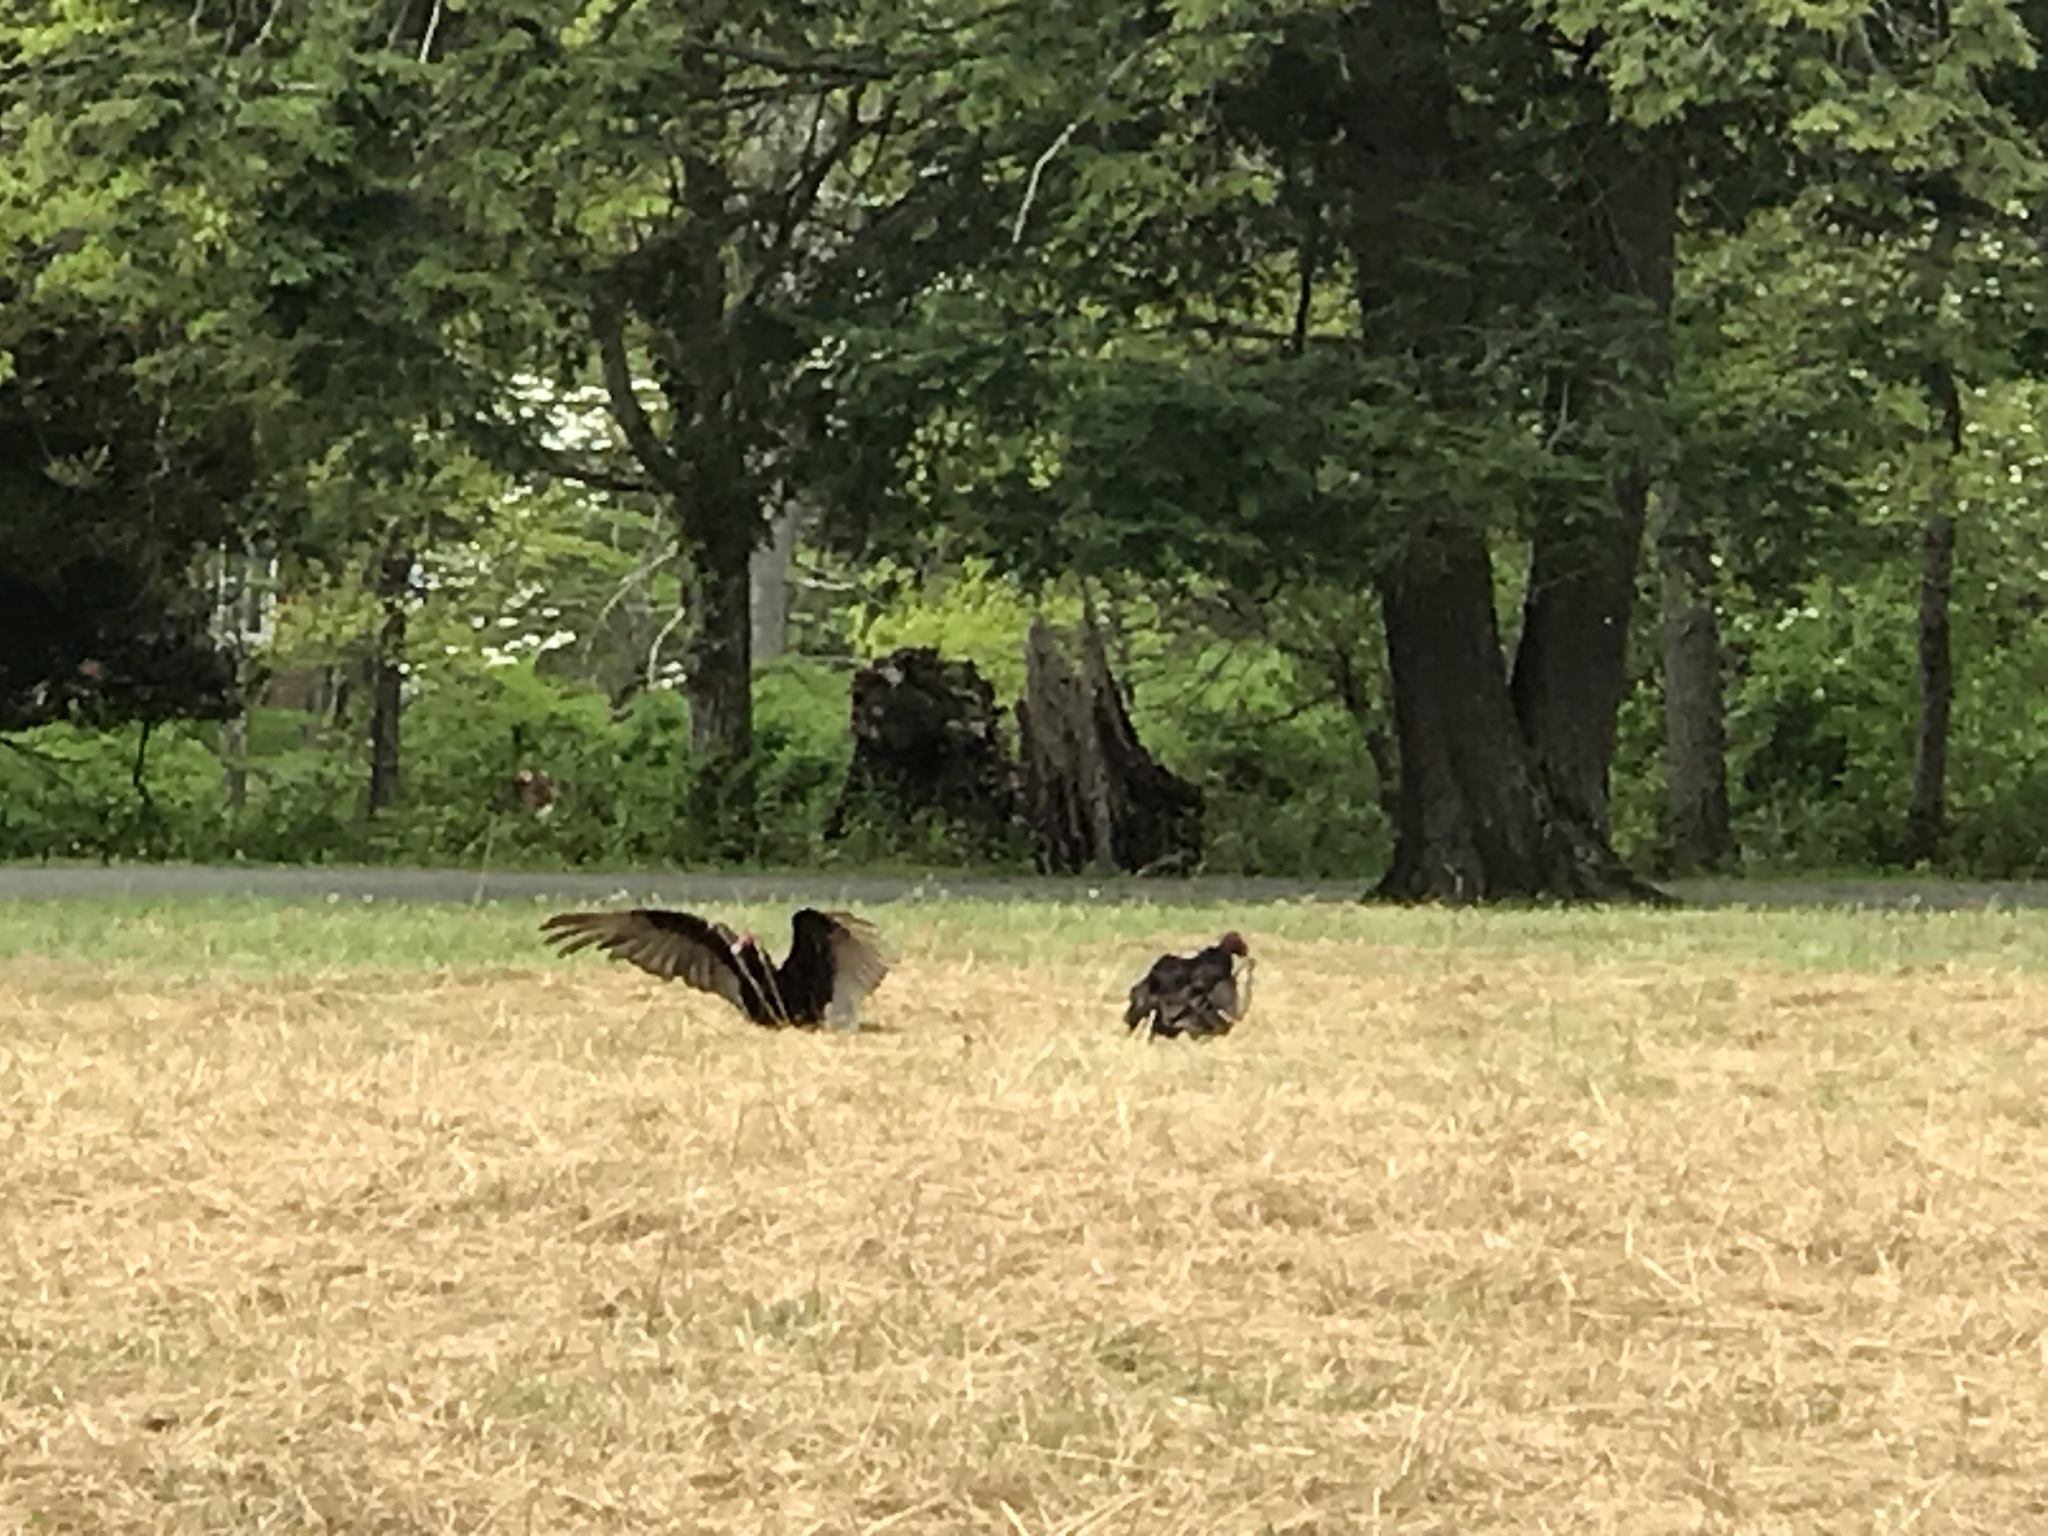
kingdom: Animalia
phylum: Chordata
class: Aves
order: Accipitriformes
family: Cathartidae
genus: Cathartes
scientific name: Cathartes aura
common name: Turkey vulture
